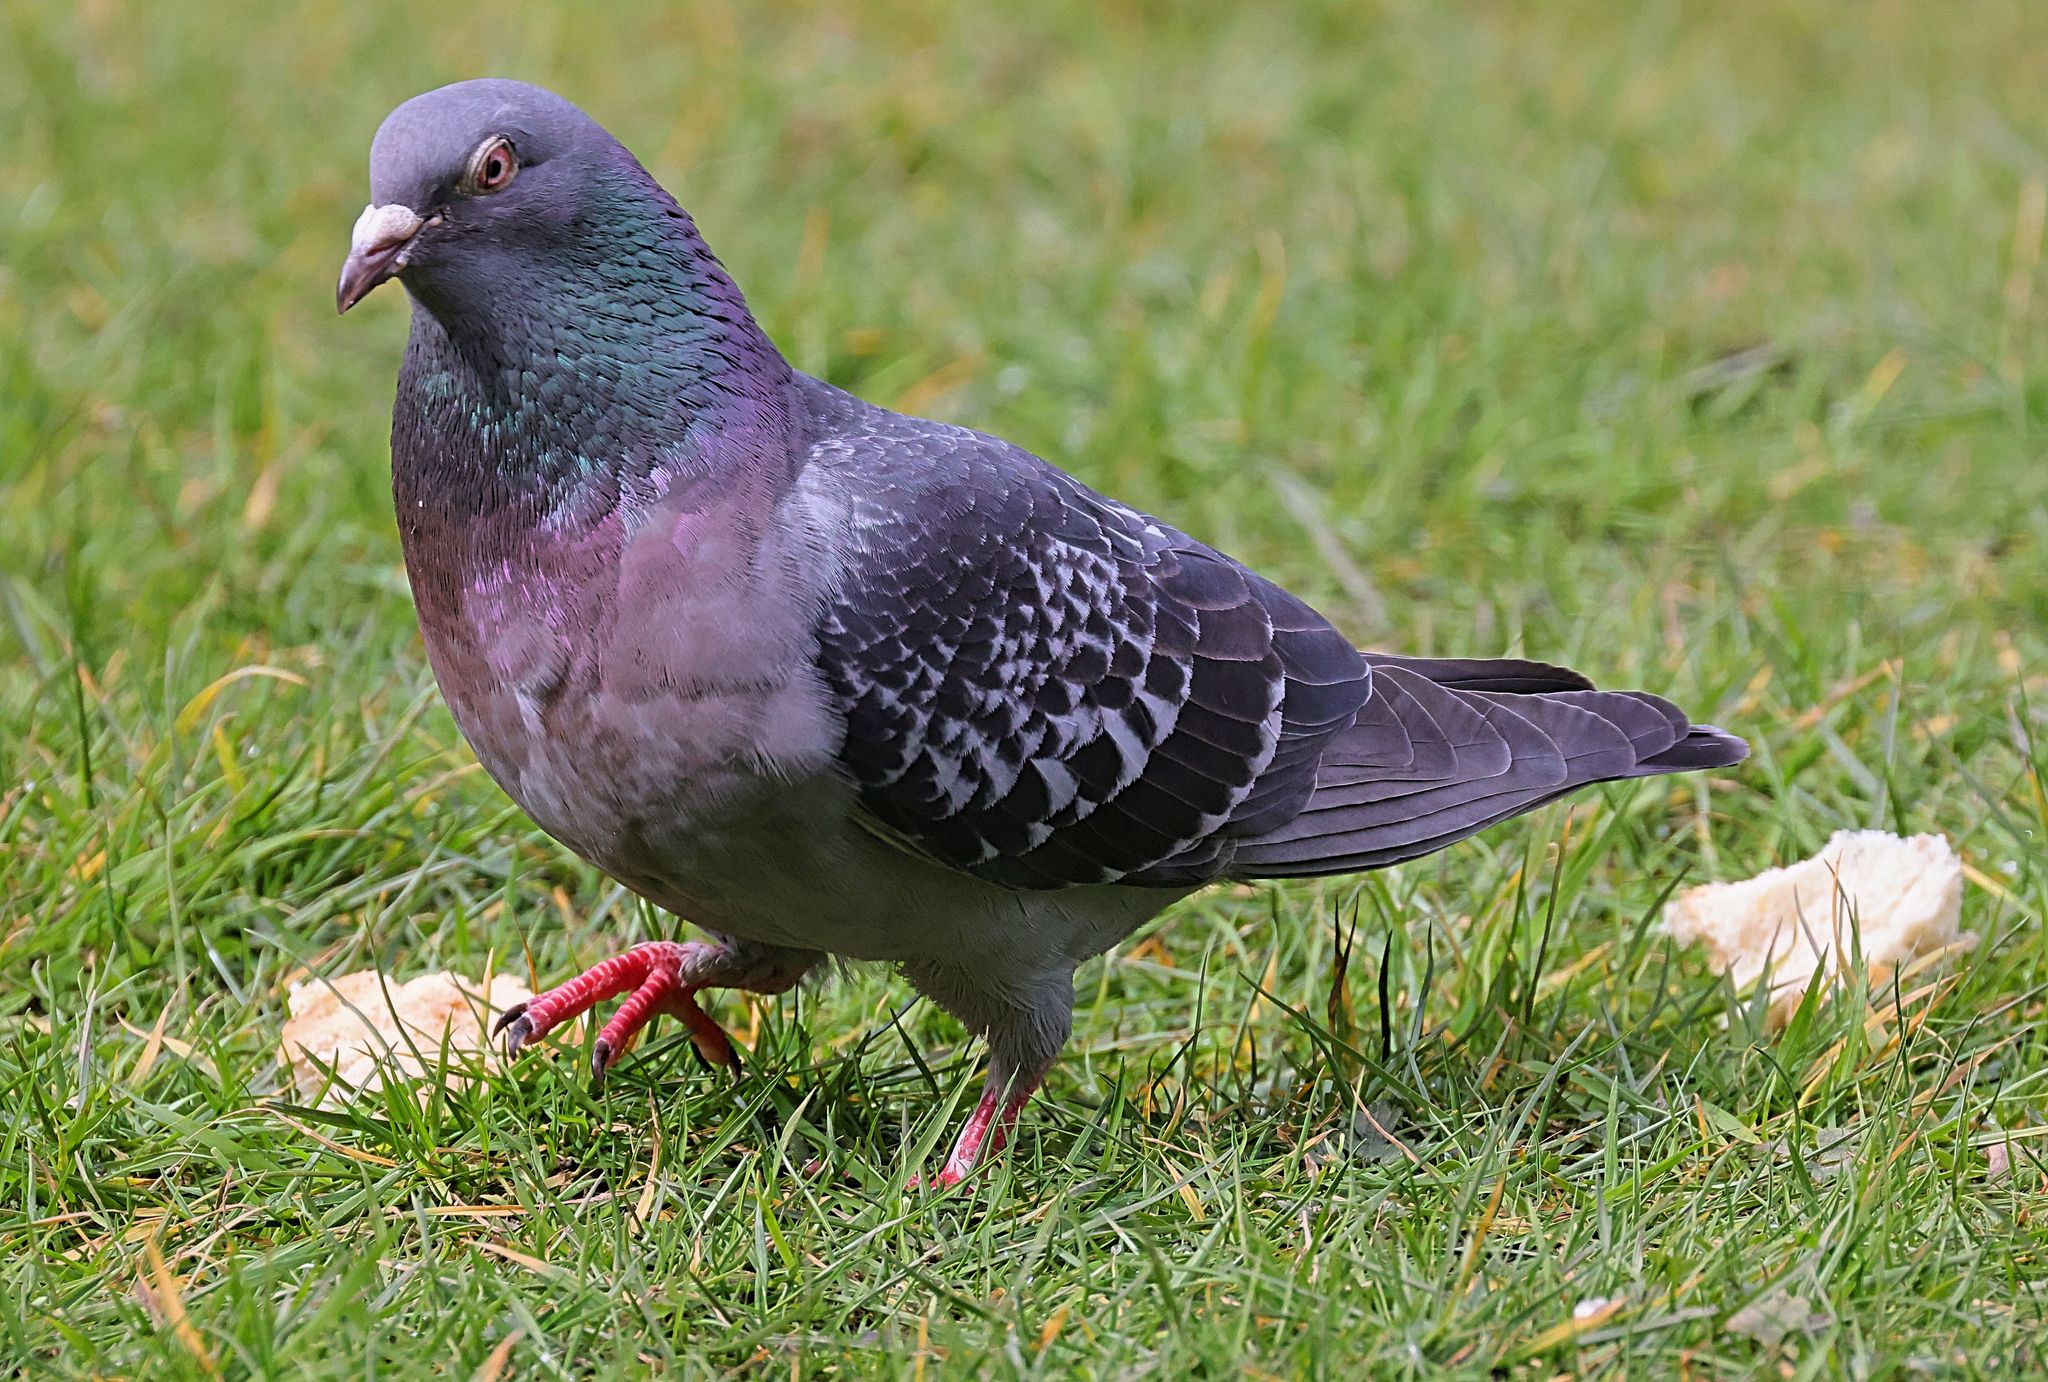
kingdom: Animalia
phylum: Chordata
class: Aves
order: Columbiformes
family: Columbidae
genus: Columba
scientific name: Columba livia
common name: Rock pigeon
